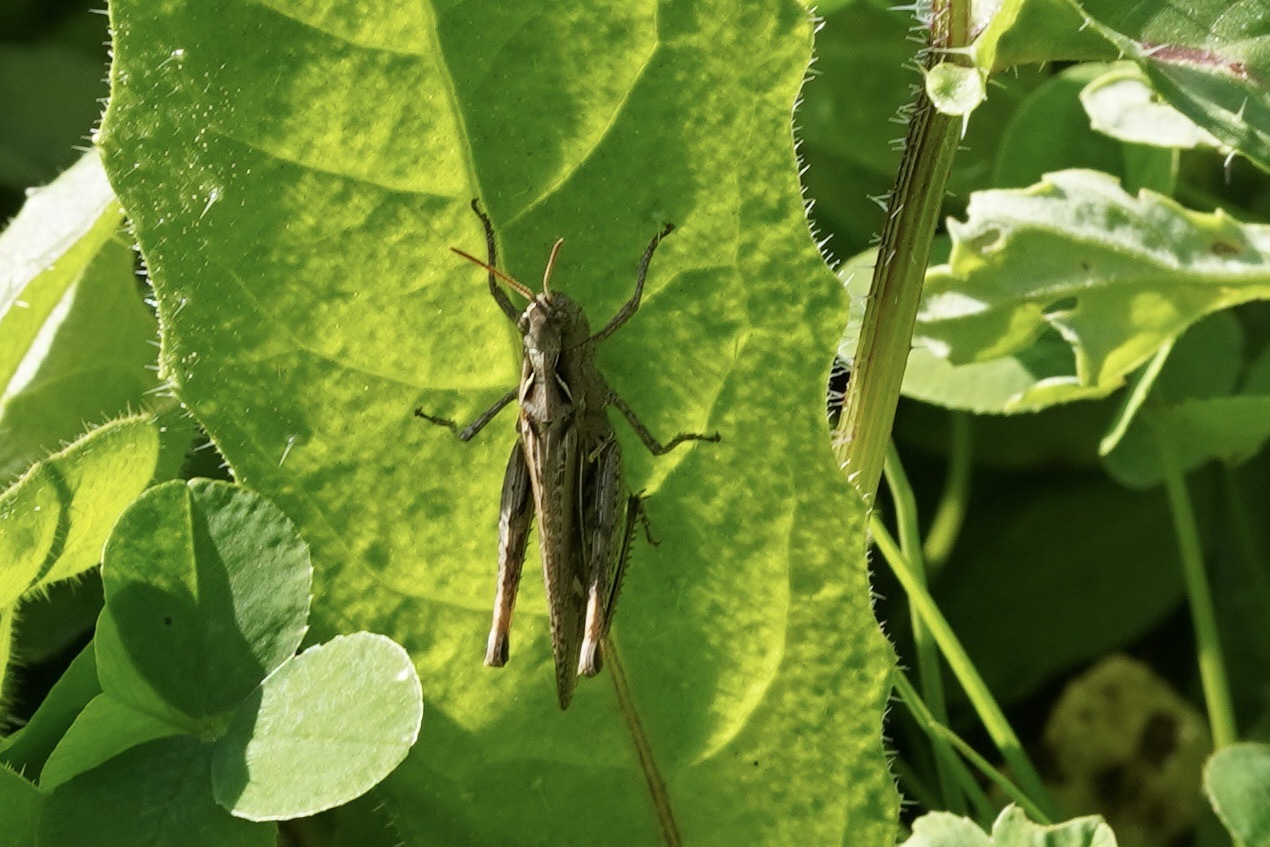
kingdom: Animalia
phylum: Arthropoda
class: Insecta
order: Orthoptera
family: Acrididae
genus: Chorthippus
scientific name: Chorthippus brunneus
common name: Field grasshopper
